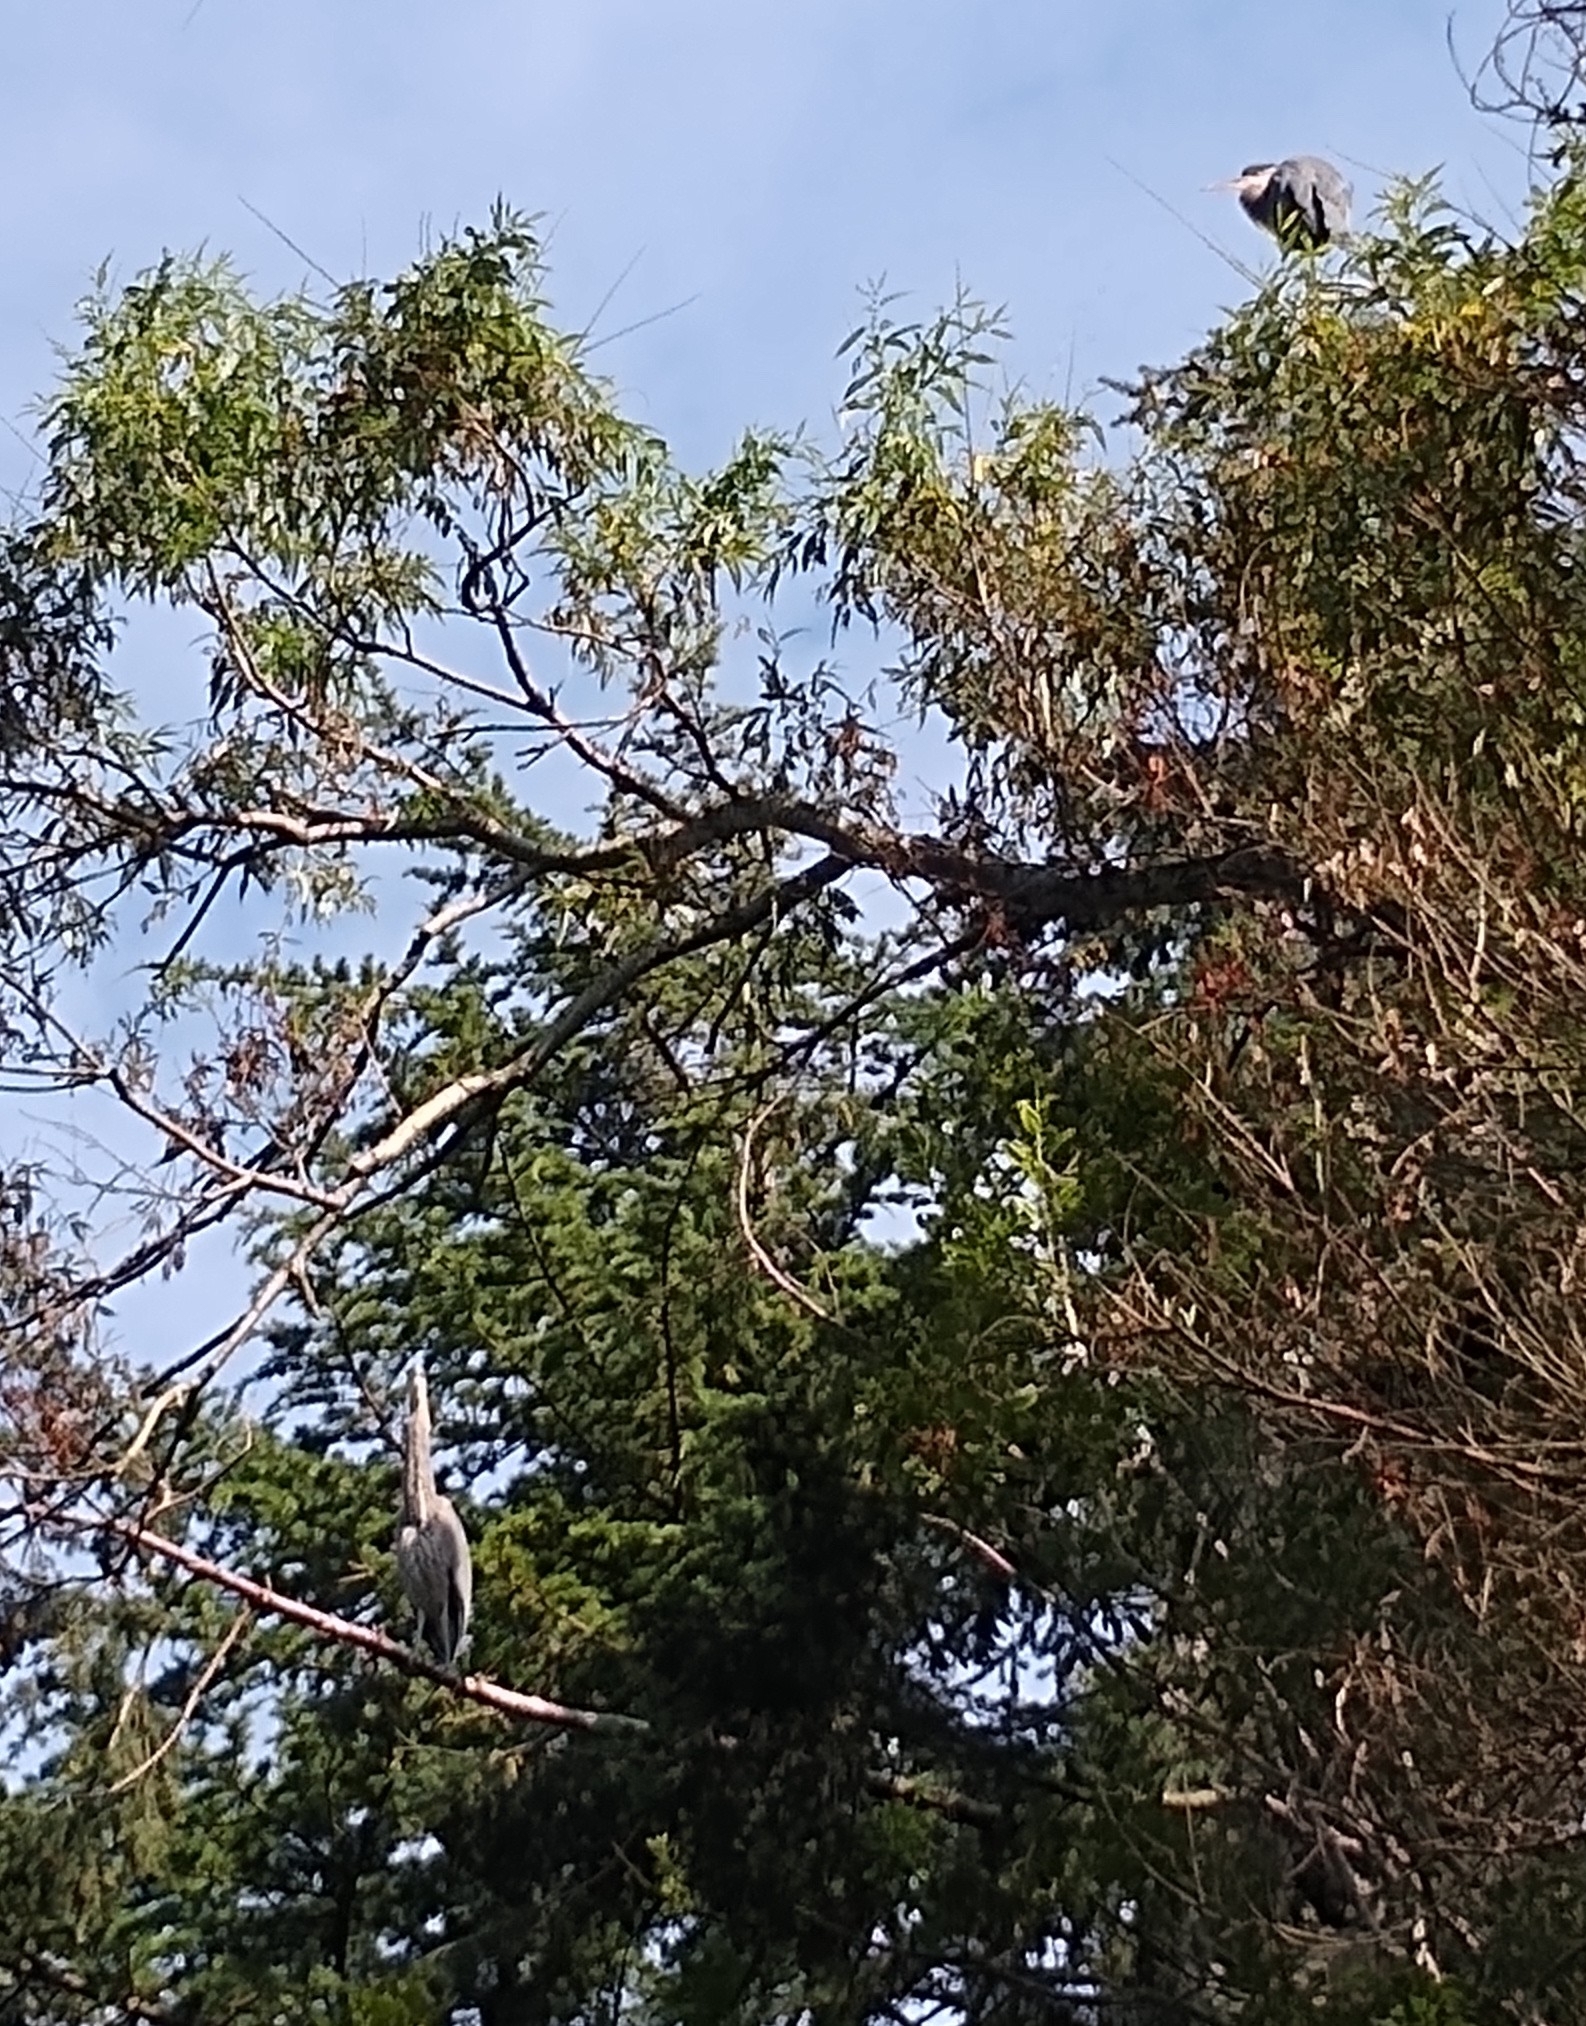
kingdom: Animalia
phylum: Chordata
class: Aves
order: Pelecaniformes
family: Ardeidae
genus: Ardea
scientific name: Ardea herodias
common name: Great blue heron
